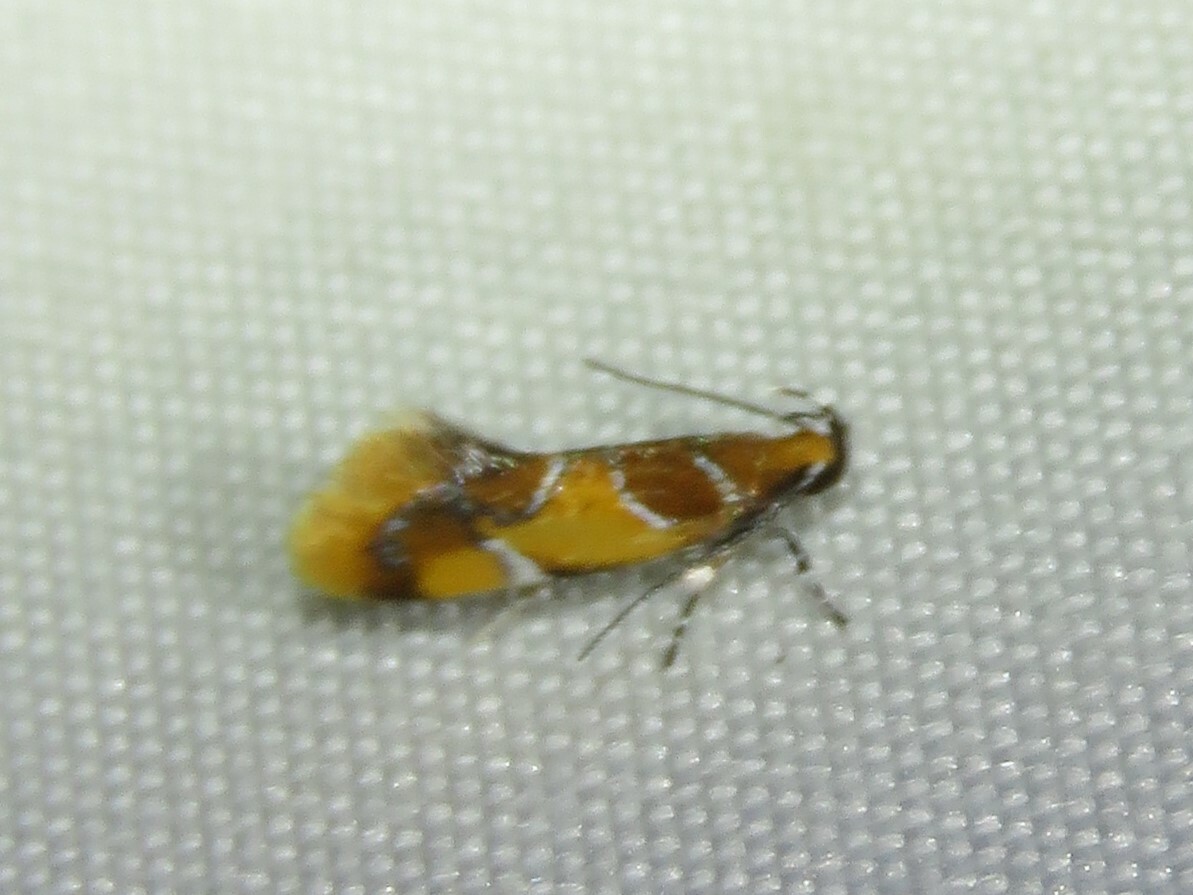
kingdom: Animalia
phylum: Arthropoda
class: Insecta
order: Lepidoptera
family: Oecophoridae
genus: Callima
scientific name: Callima argenticinctella
